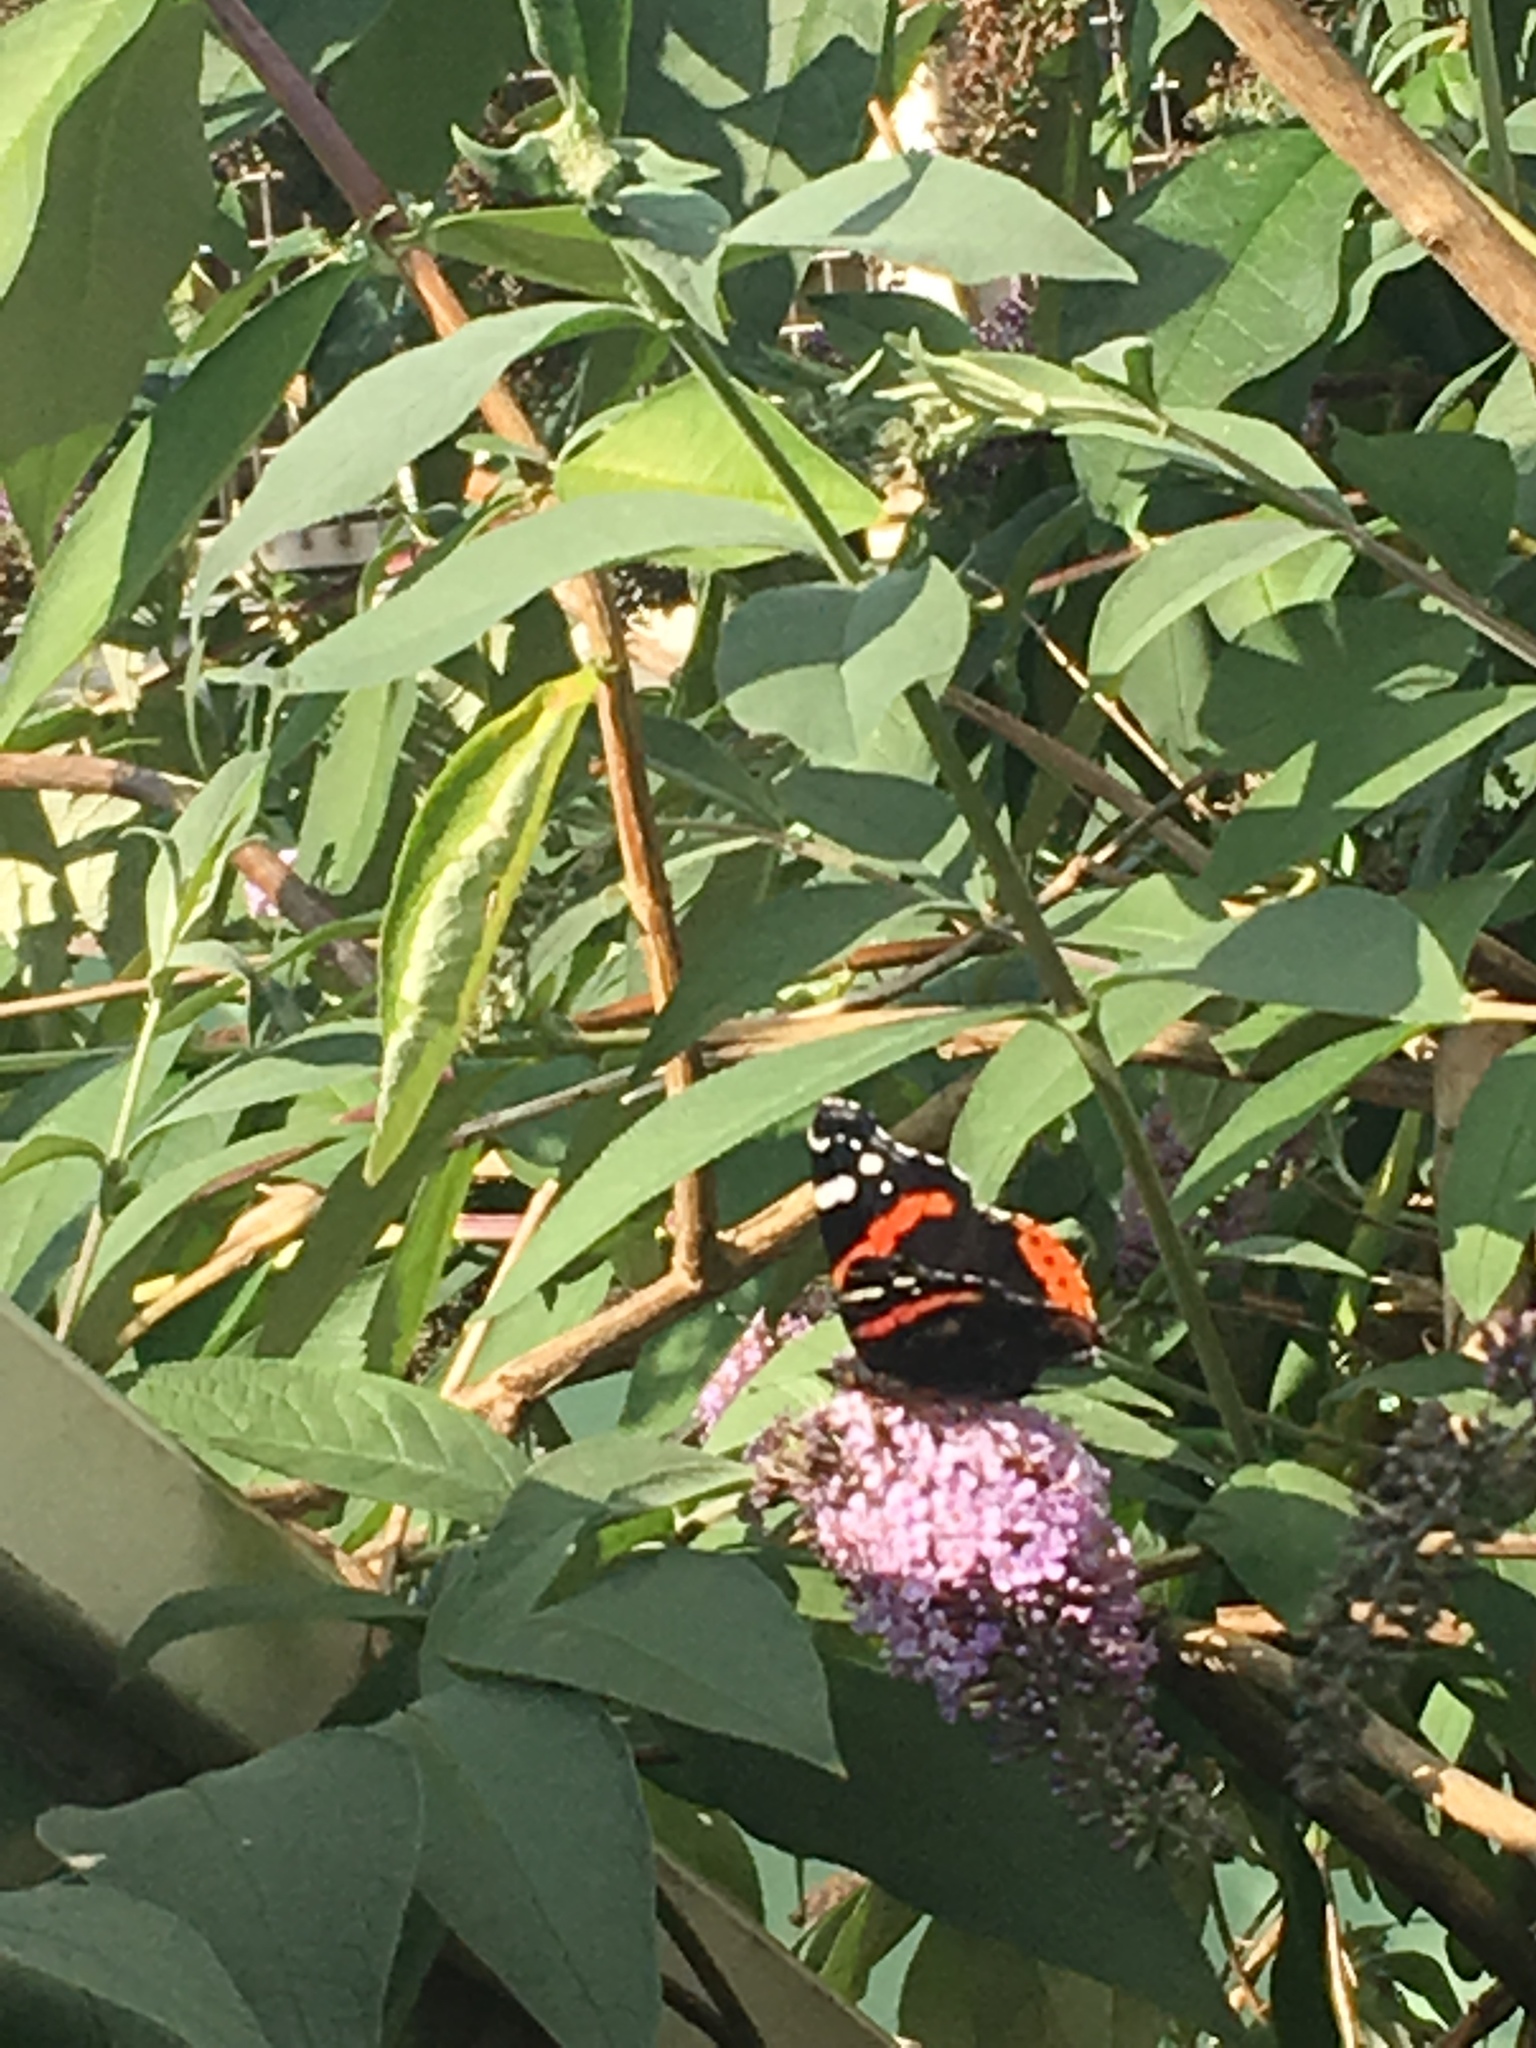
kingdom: Animalia
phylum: Arthropoda
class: Insecta
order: Lepidoptera
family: Nymphalidae
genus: Vanessa
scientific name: Vanessa atalanta
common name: Red admiral
